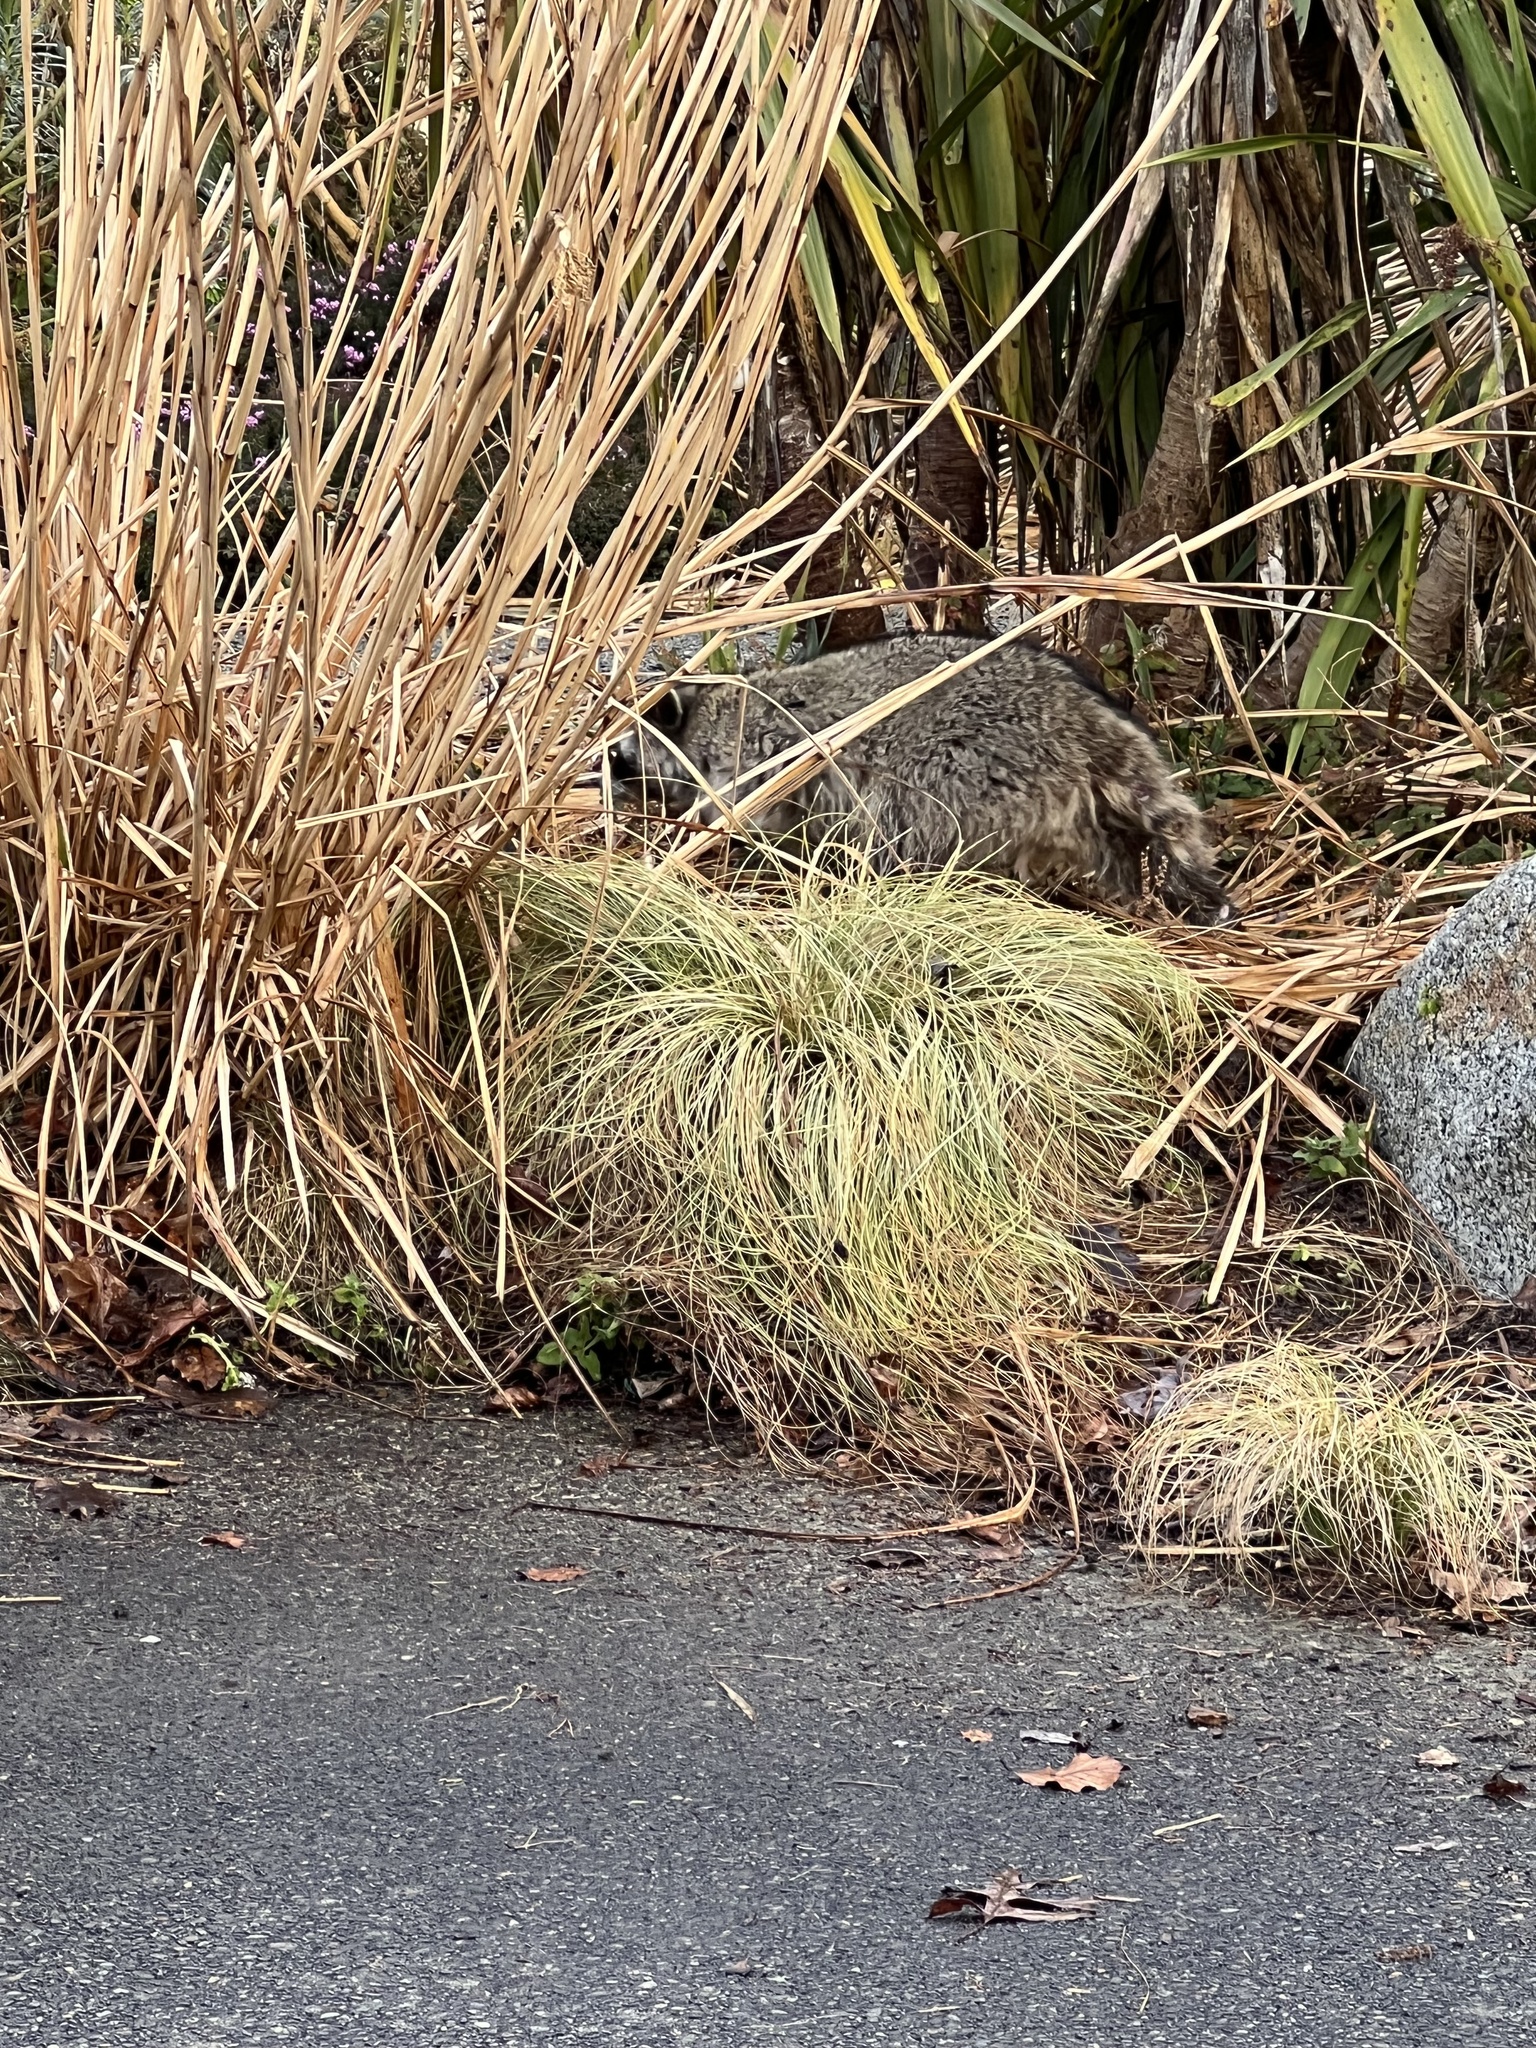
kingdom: Animalia
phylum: Chordata
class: Mammalia
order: Carnivora
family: Procyonidae
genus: Procyon
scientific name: Procyon lotor
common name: Raccoon
